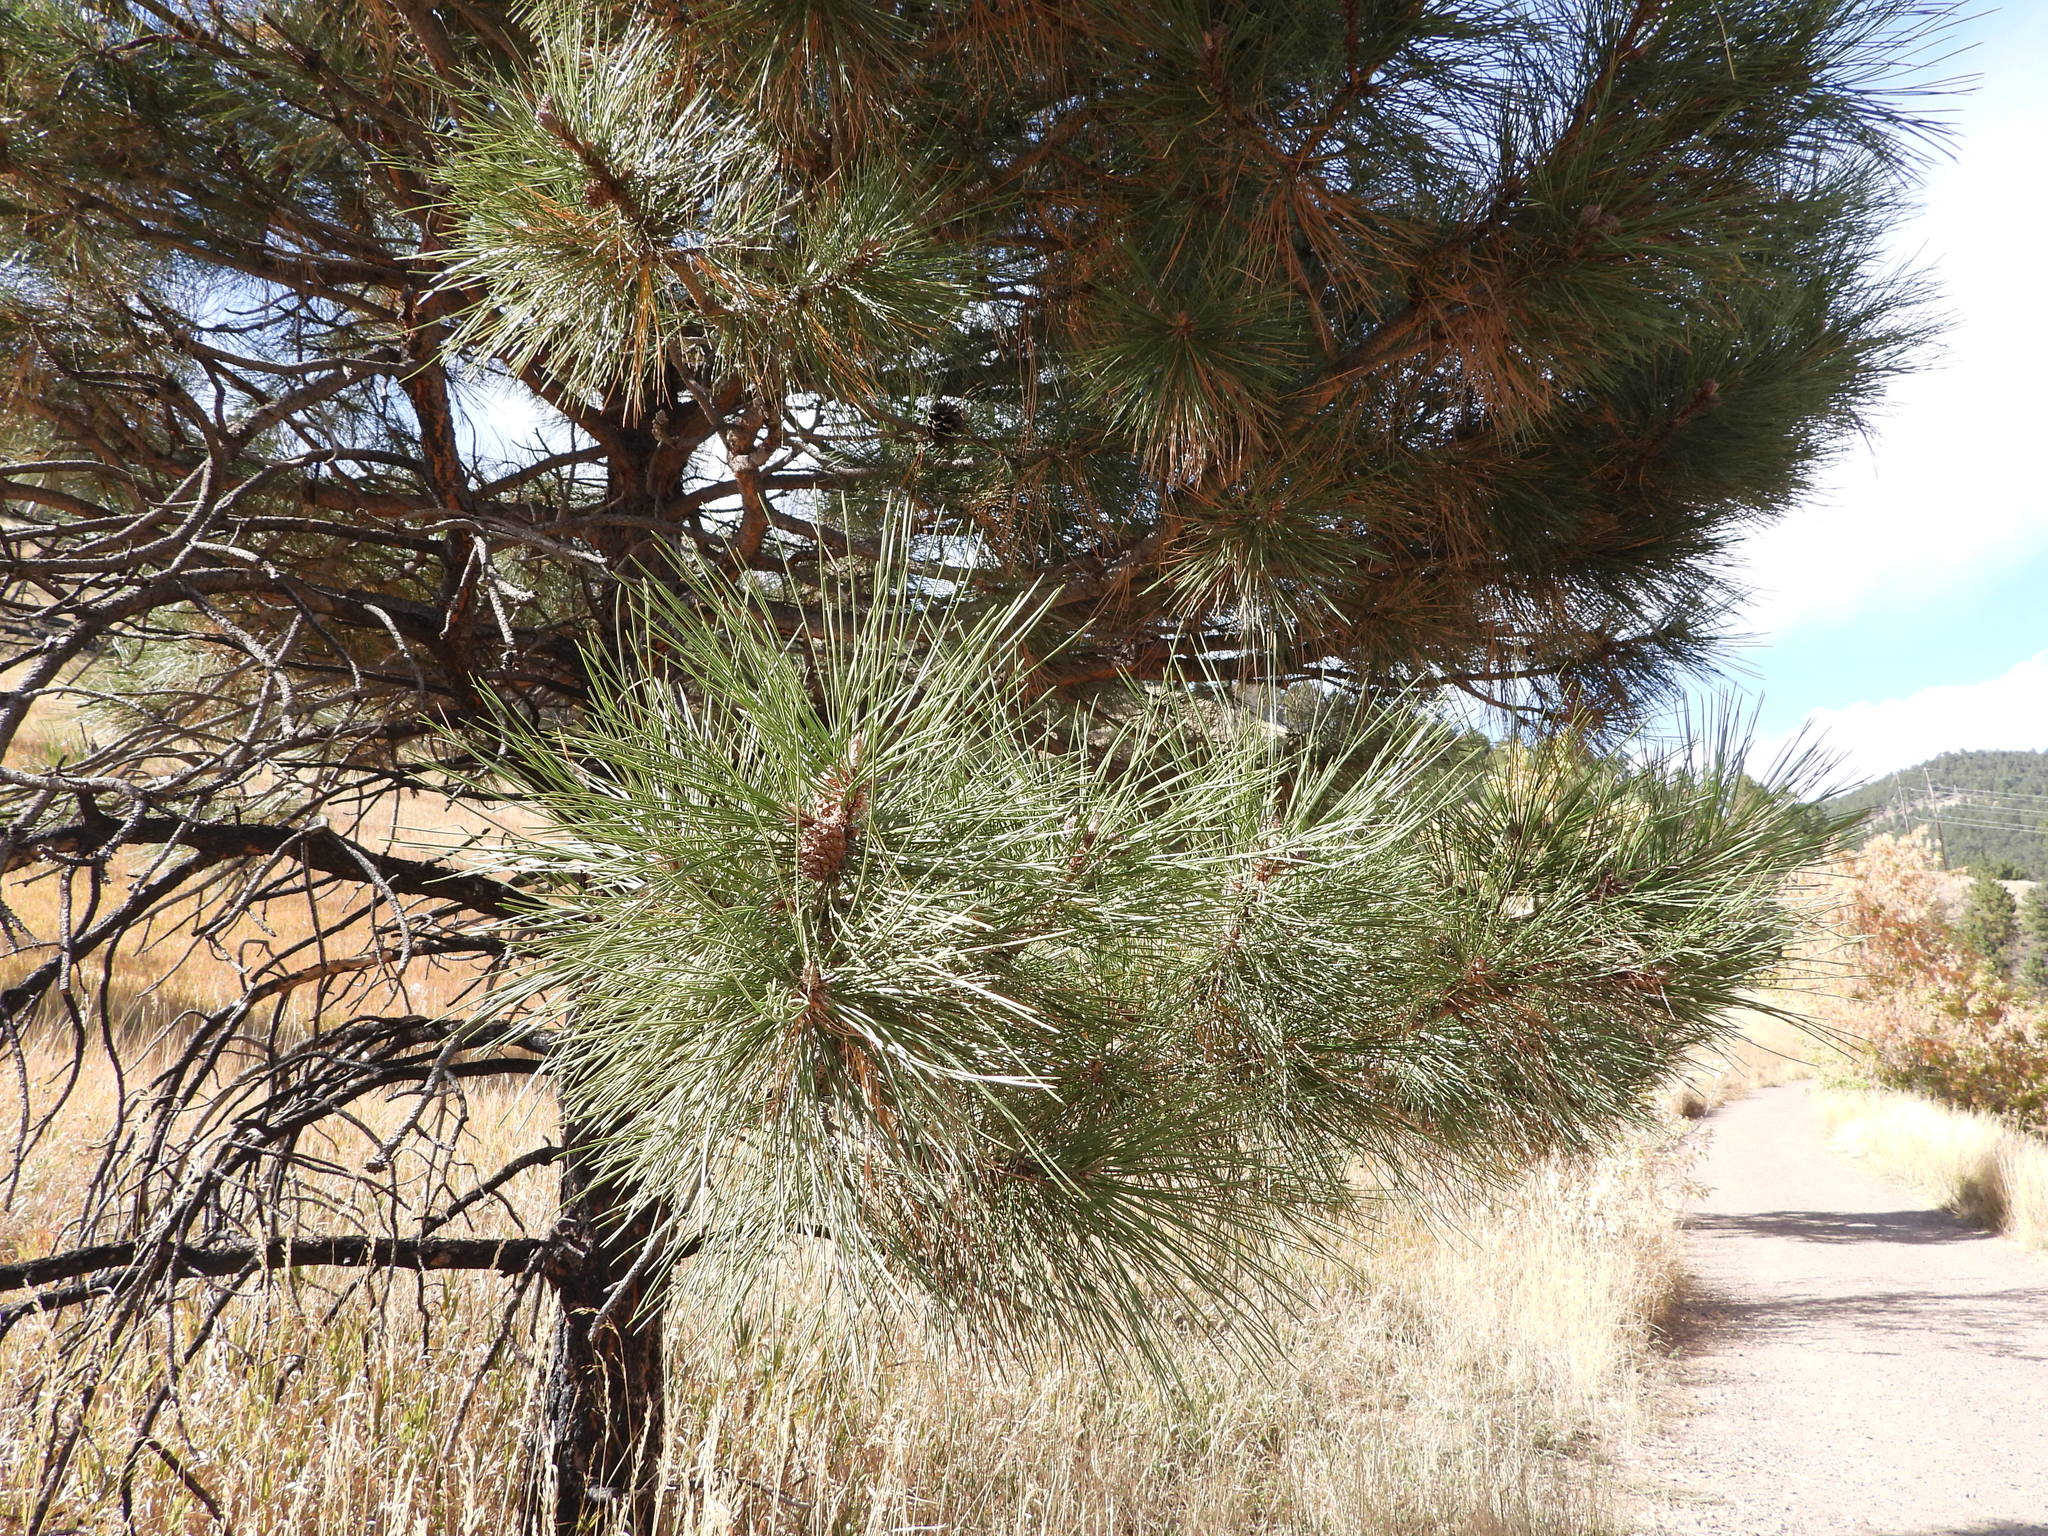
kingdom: Plantae
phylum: Tracheophyta
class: Pinopsida
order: Pinales
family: Pinaceae
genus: Pinus
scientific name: Pinus ponderosa
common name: Western yellow-pine
